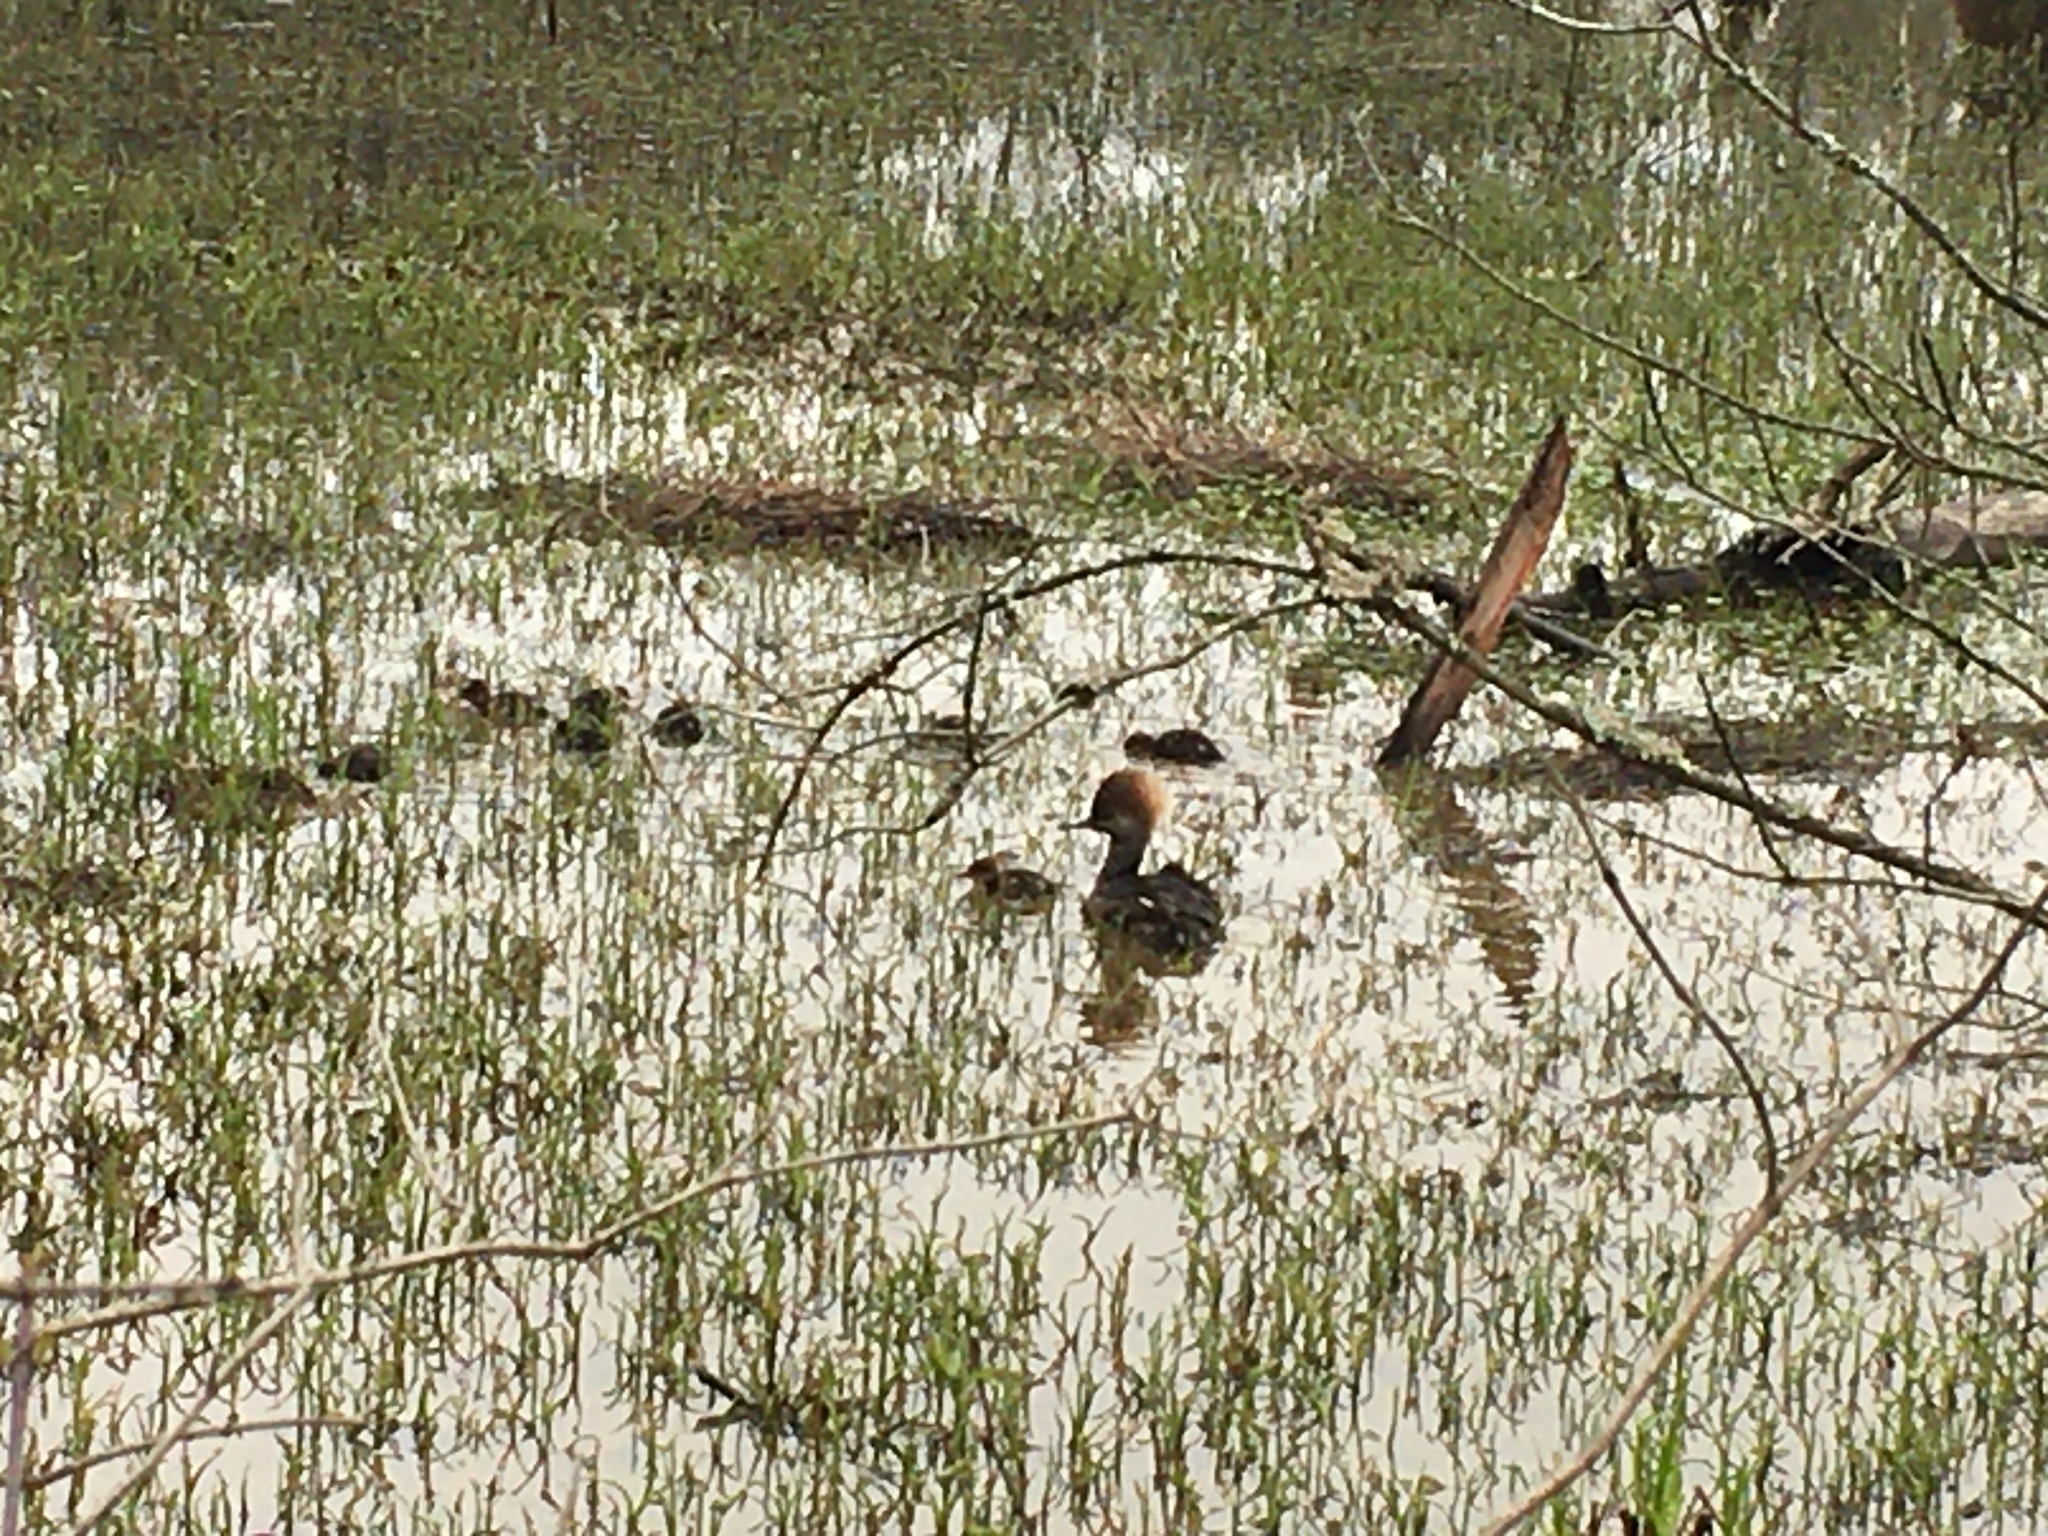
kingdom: Animalia
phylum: Chordata
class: Aves
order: Anseriformes
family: Anatidae
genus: Lophodytes
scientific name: Lophodytes cucullatus
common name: Hooded merganser
